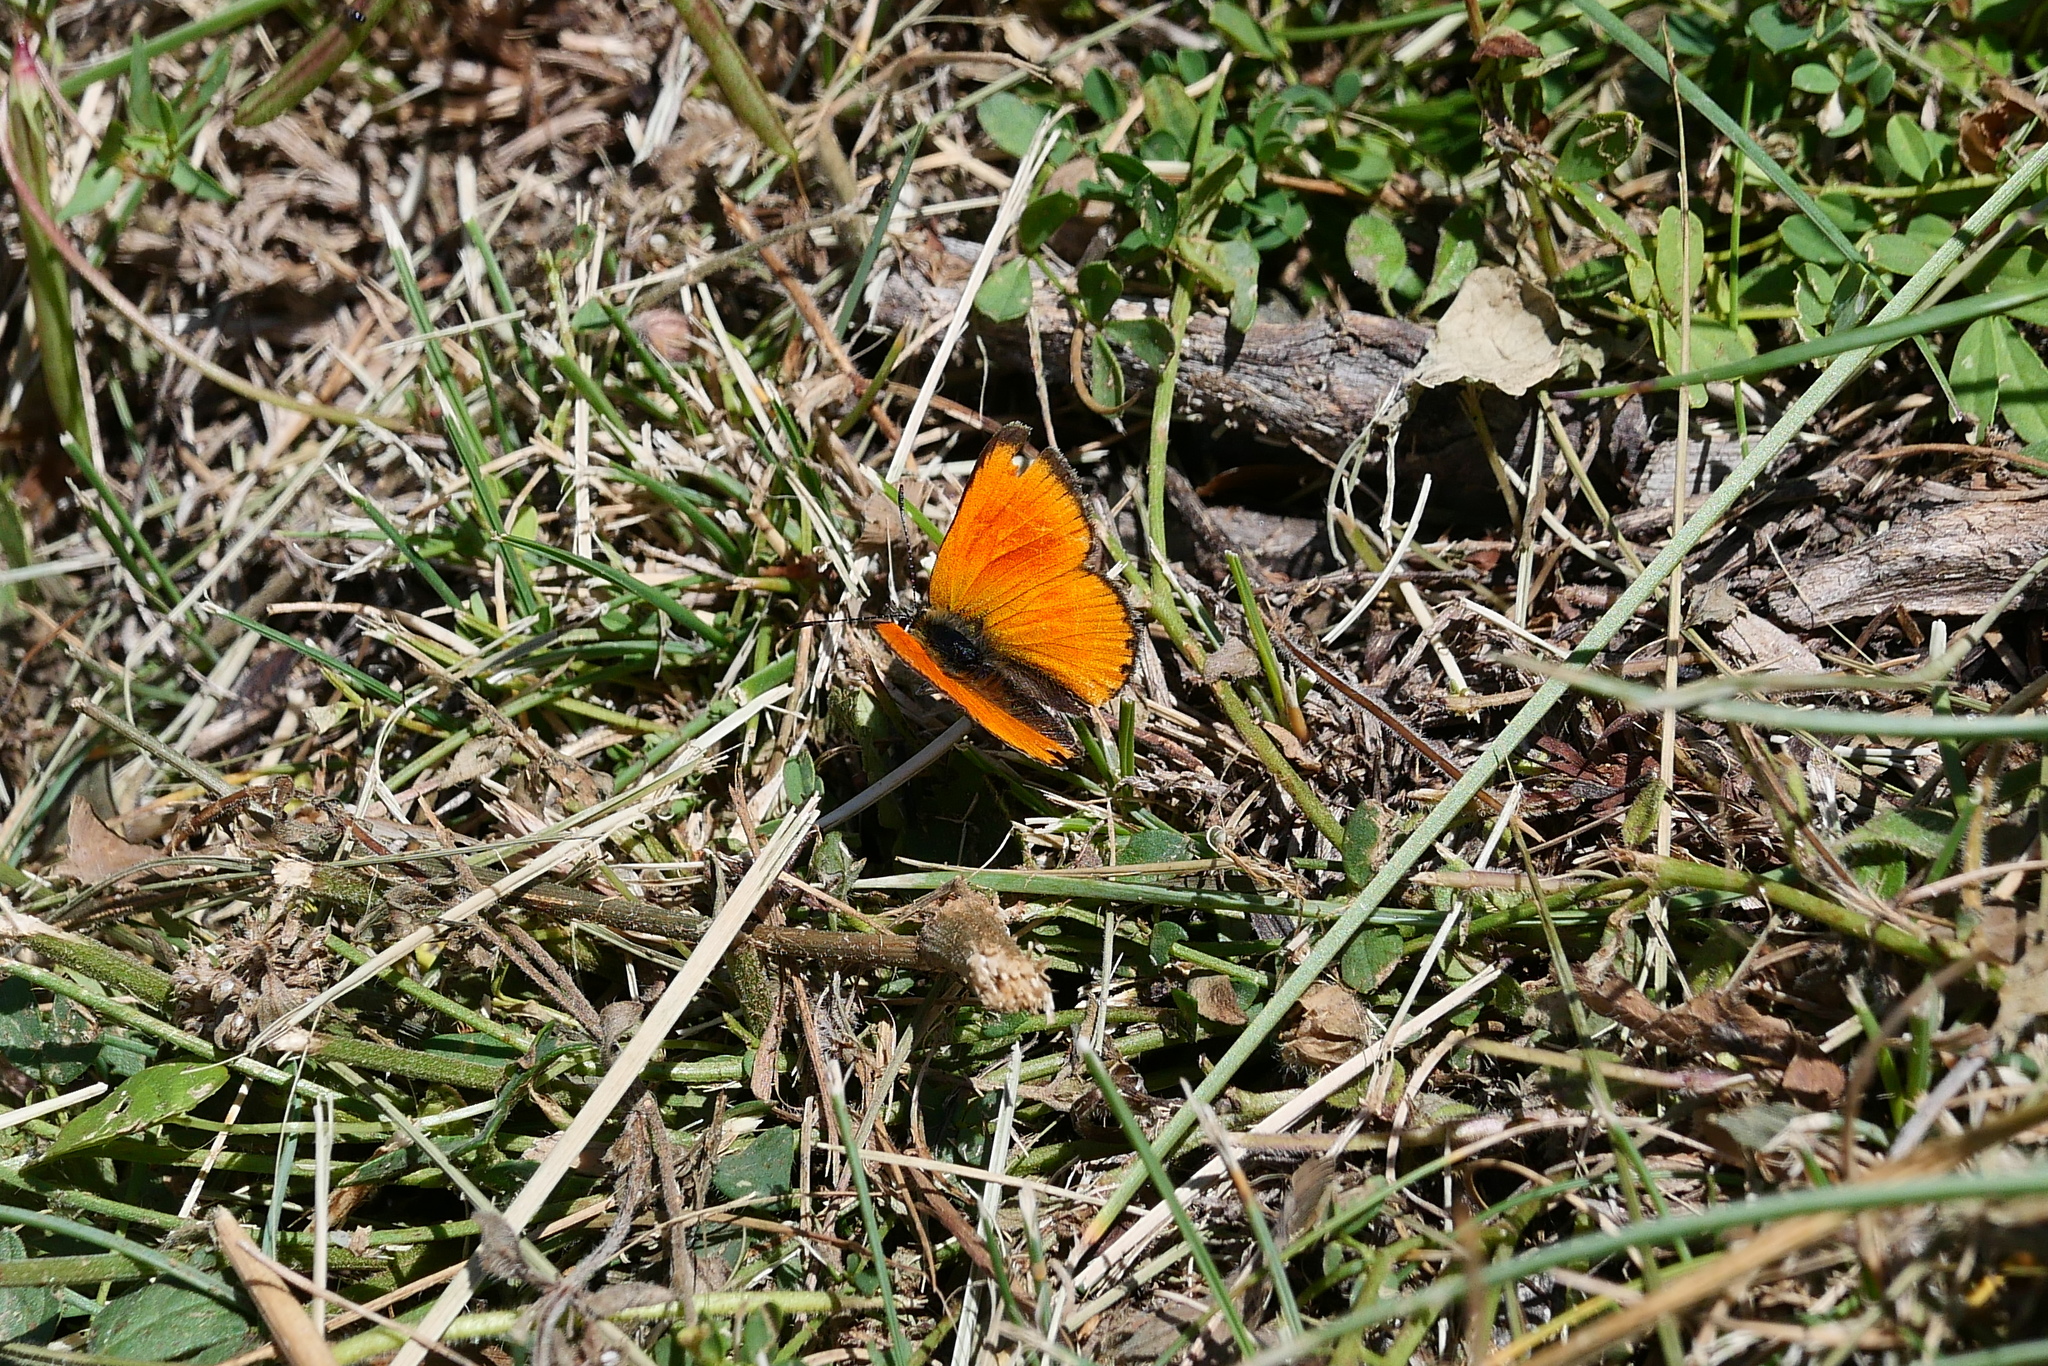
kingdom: Animalia
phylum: Arthropoda
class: Insecta
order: Lepidoptera
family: Lycaenidae
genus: Lycaena
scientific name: Lycaena virgaureae
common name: Scarce copper
